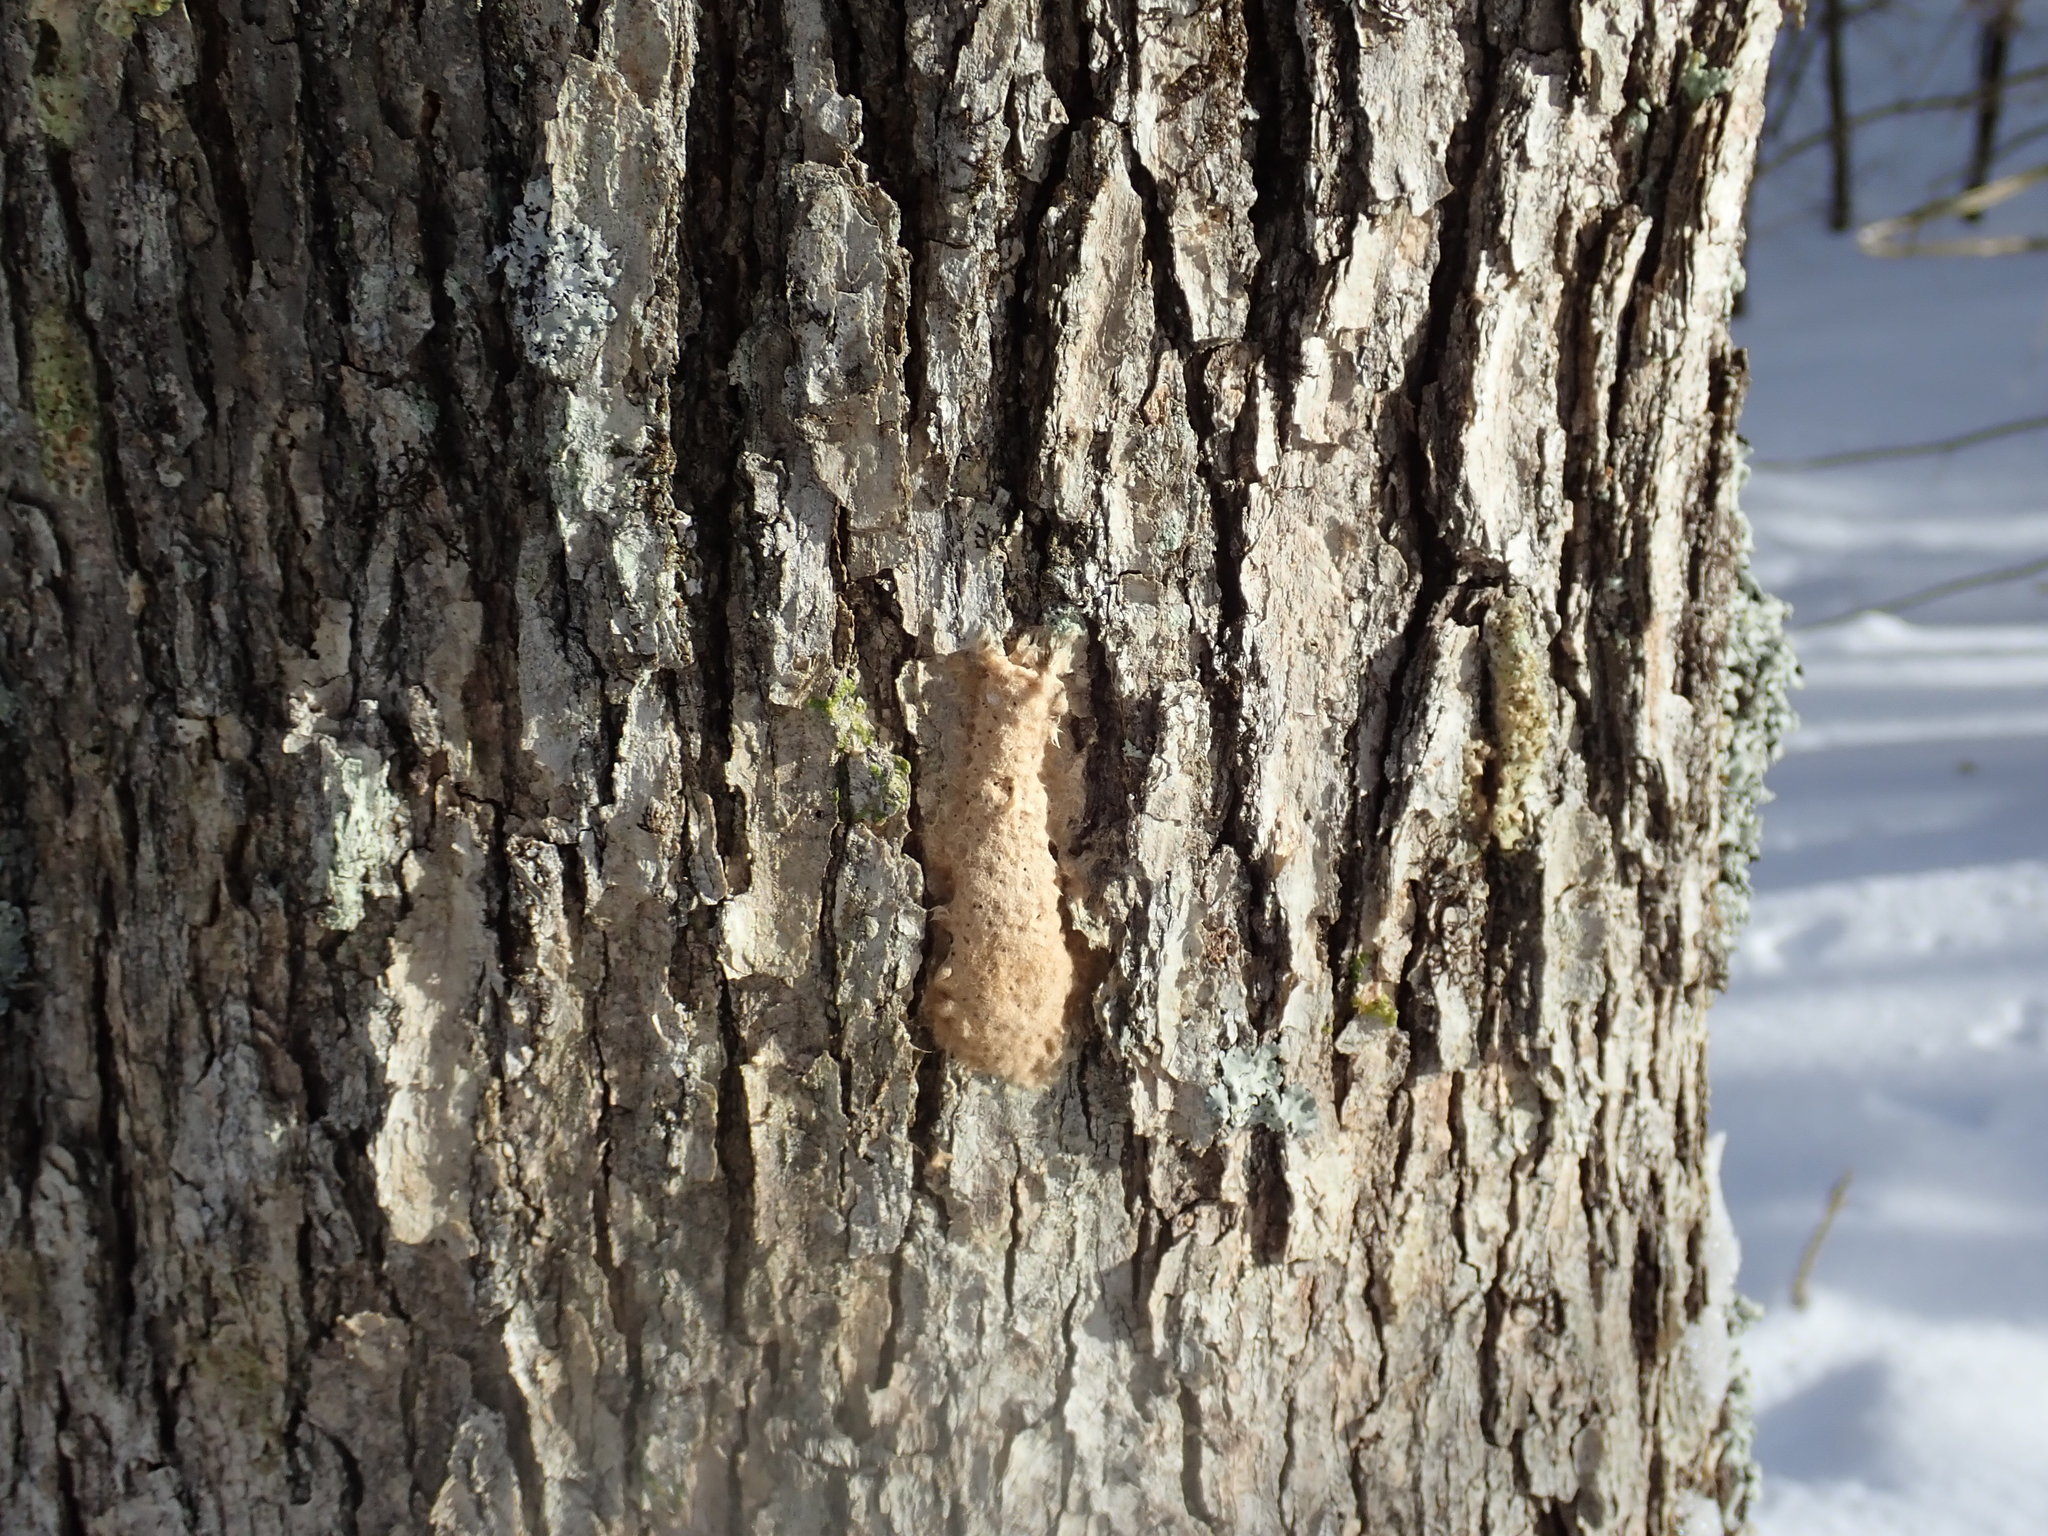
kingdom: Animalia
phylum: Arthropoda
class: Insecta
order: Lepidoptera
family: Erebidae
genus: Lymantria
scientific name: Lymantria dispar
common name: Gypsy moth
